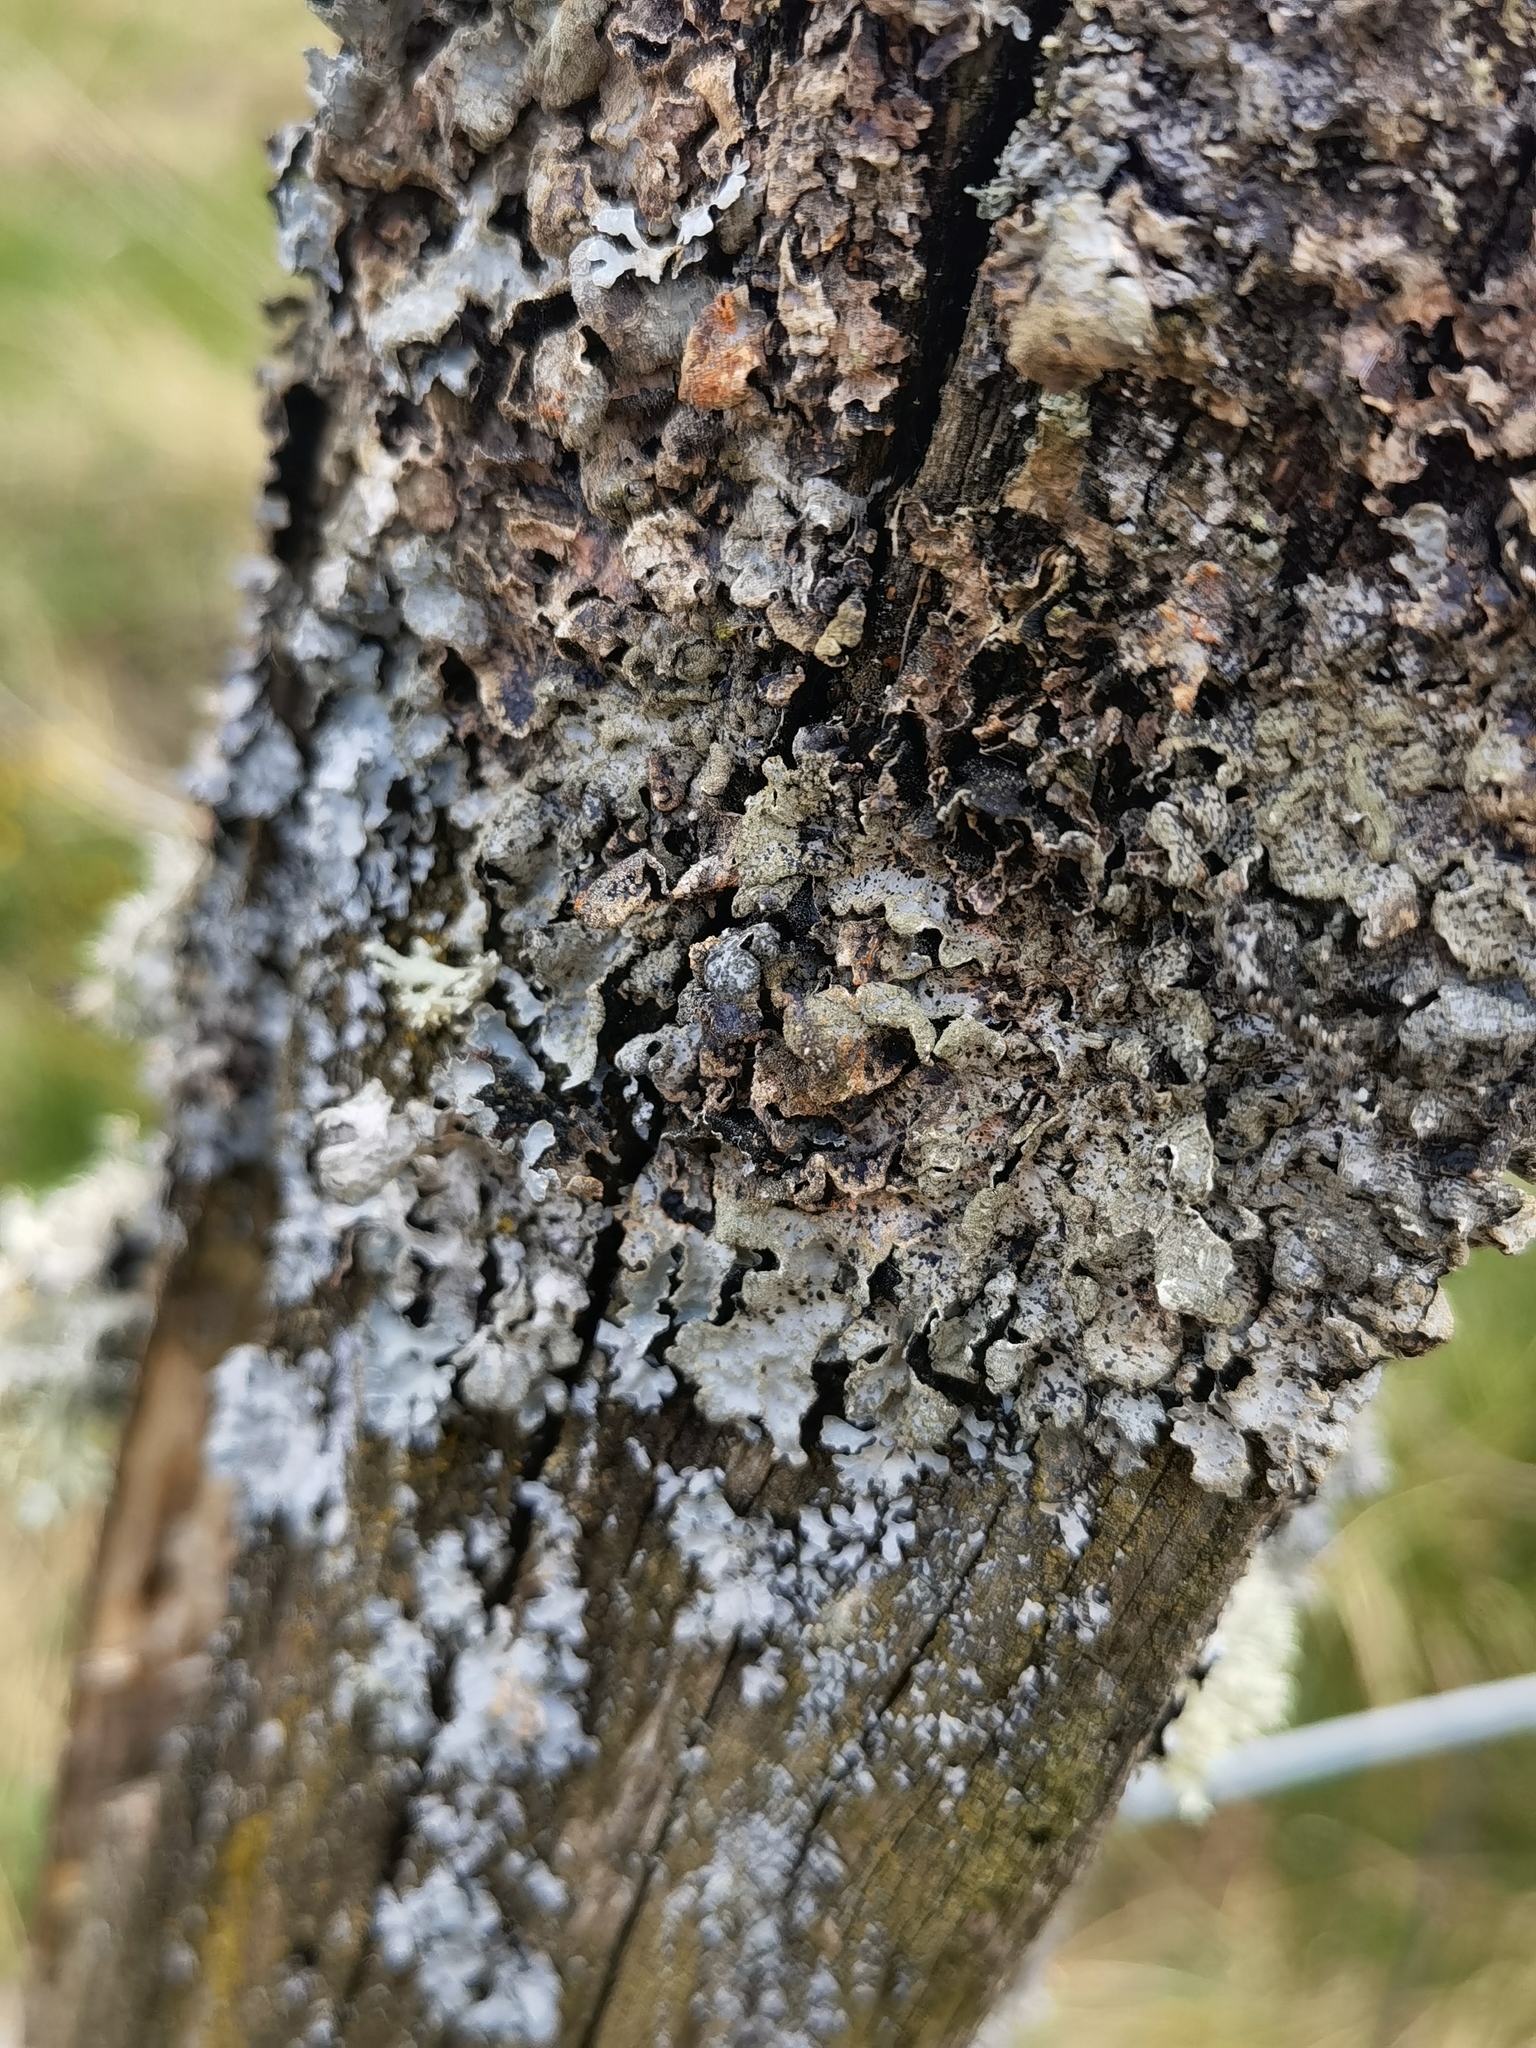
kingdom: Fungi
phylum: Ascomycota
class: Lecanoromycetes
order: Lecanorales
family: Parmeliaceae
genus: Parmelia
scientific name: Parmelia sulcata
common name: Netted shield lichen
